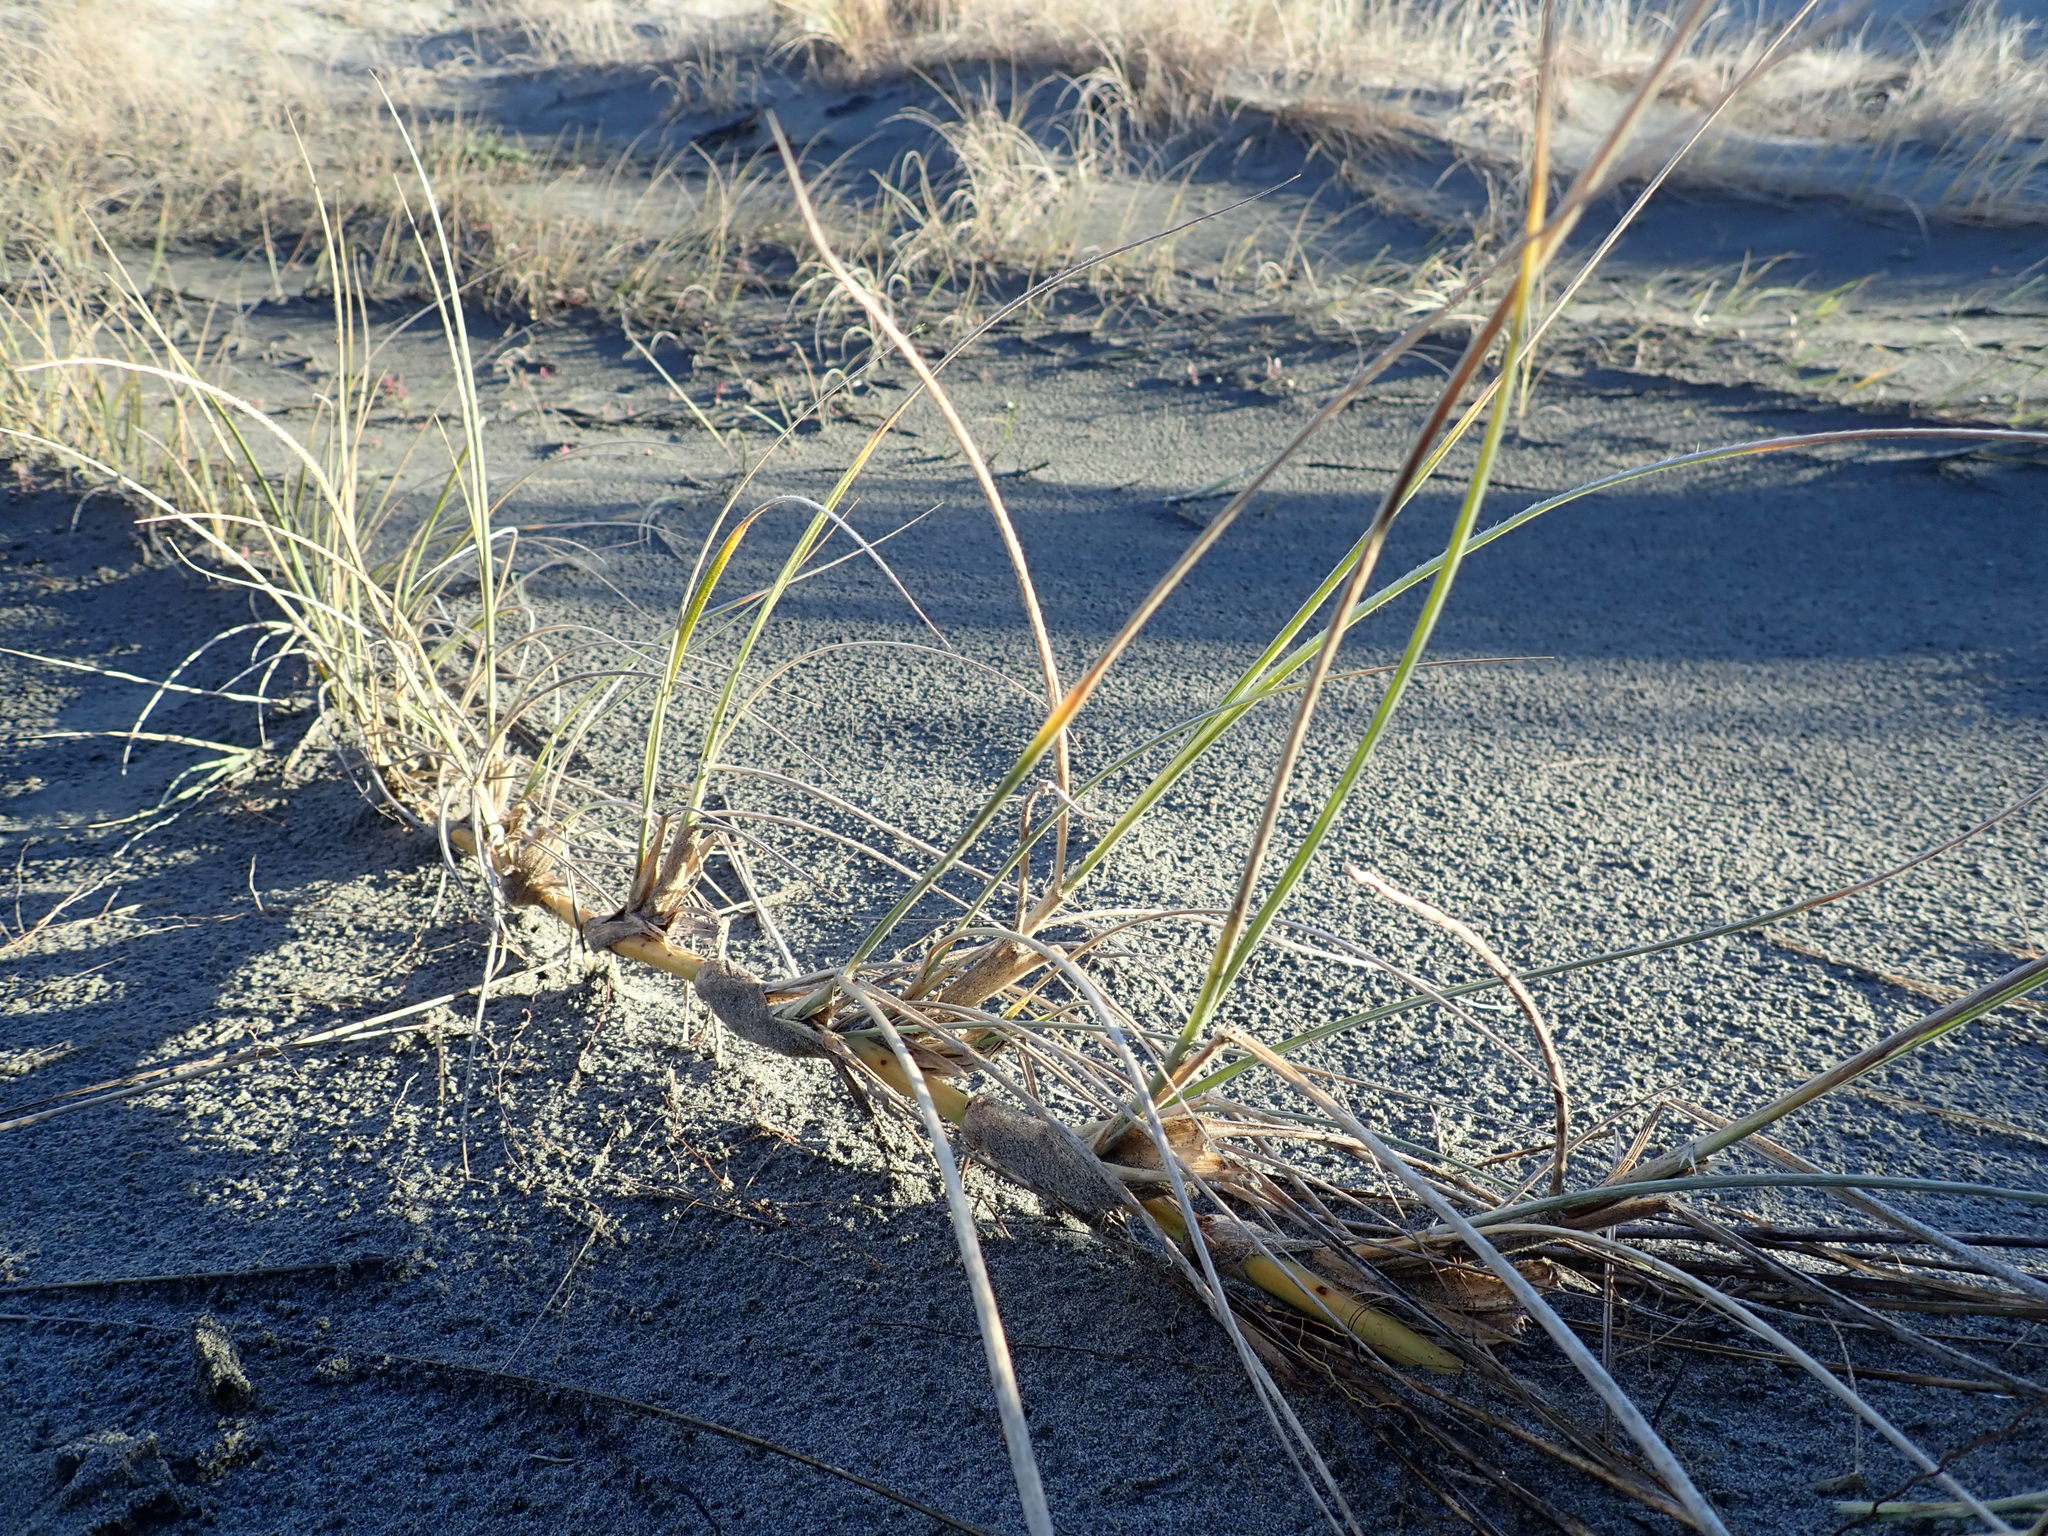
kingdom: Plantae
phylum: Tracheophyta
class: Liliopsida
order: Poales
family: Poaceae
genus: Spinifex
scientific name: Spinifex sericeus
